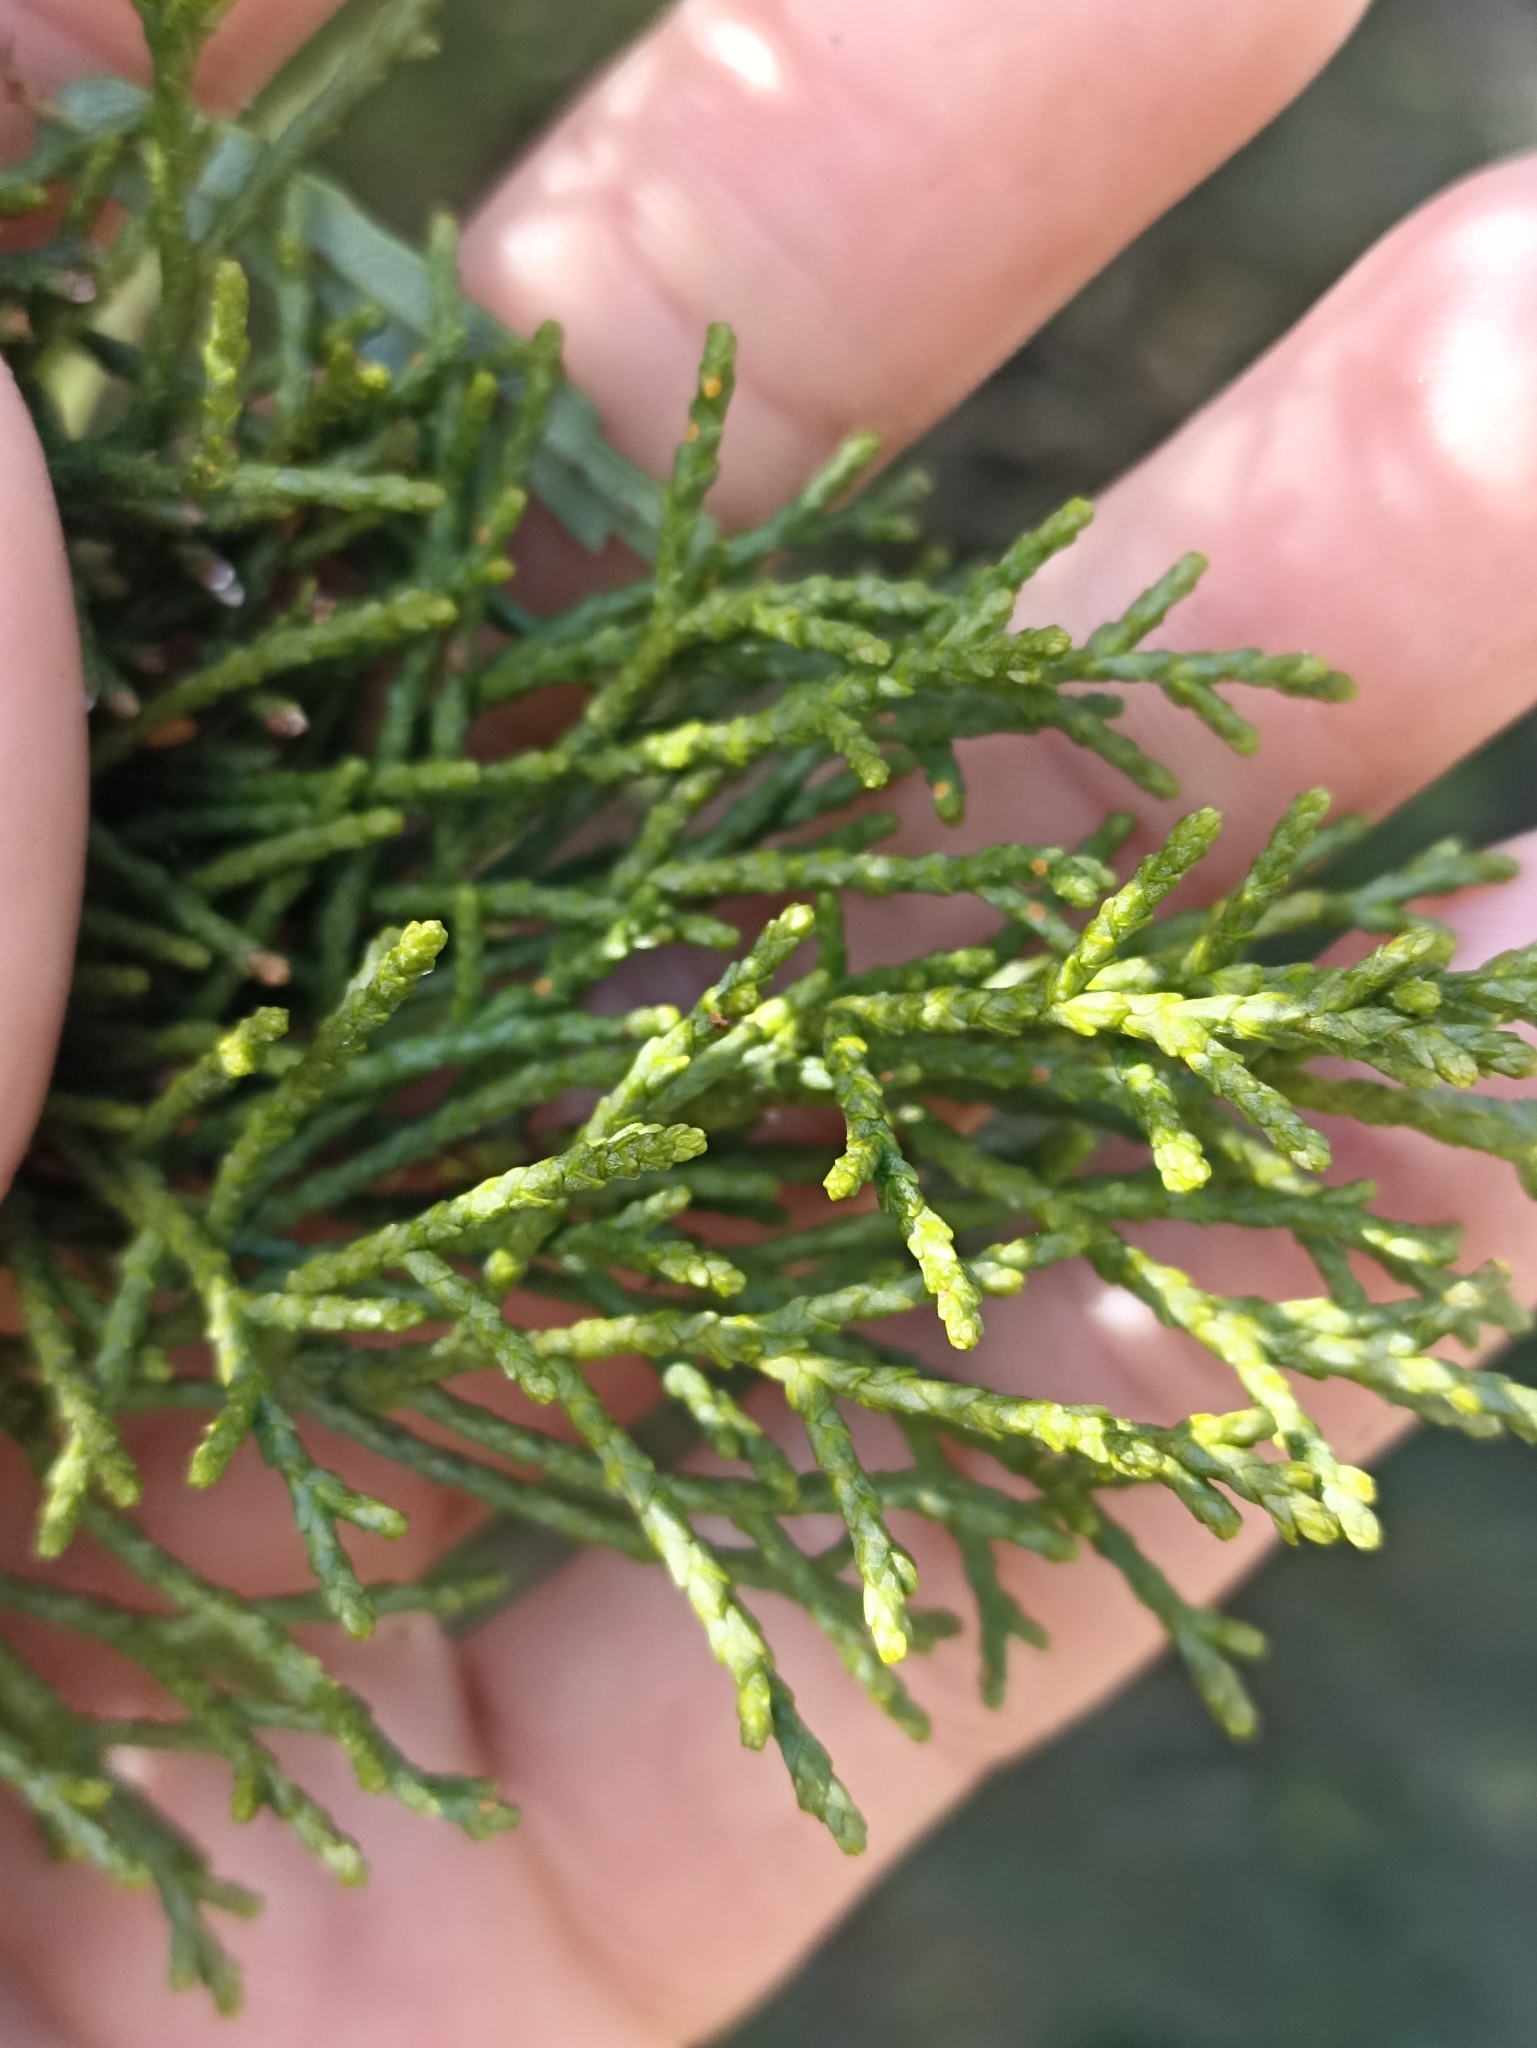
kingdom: Plantae
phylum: Tracheophyta
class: Pinopsida
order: Pinales
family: Podocarpaceae
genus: Manoao
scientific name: Manoao colensoi
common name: Silver pine
